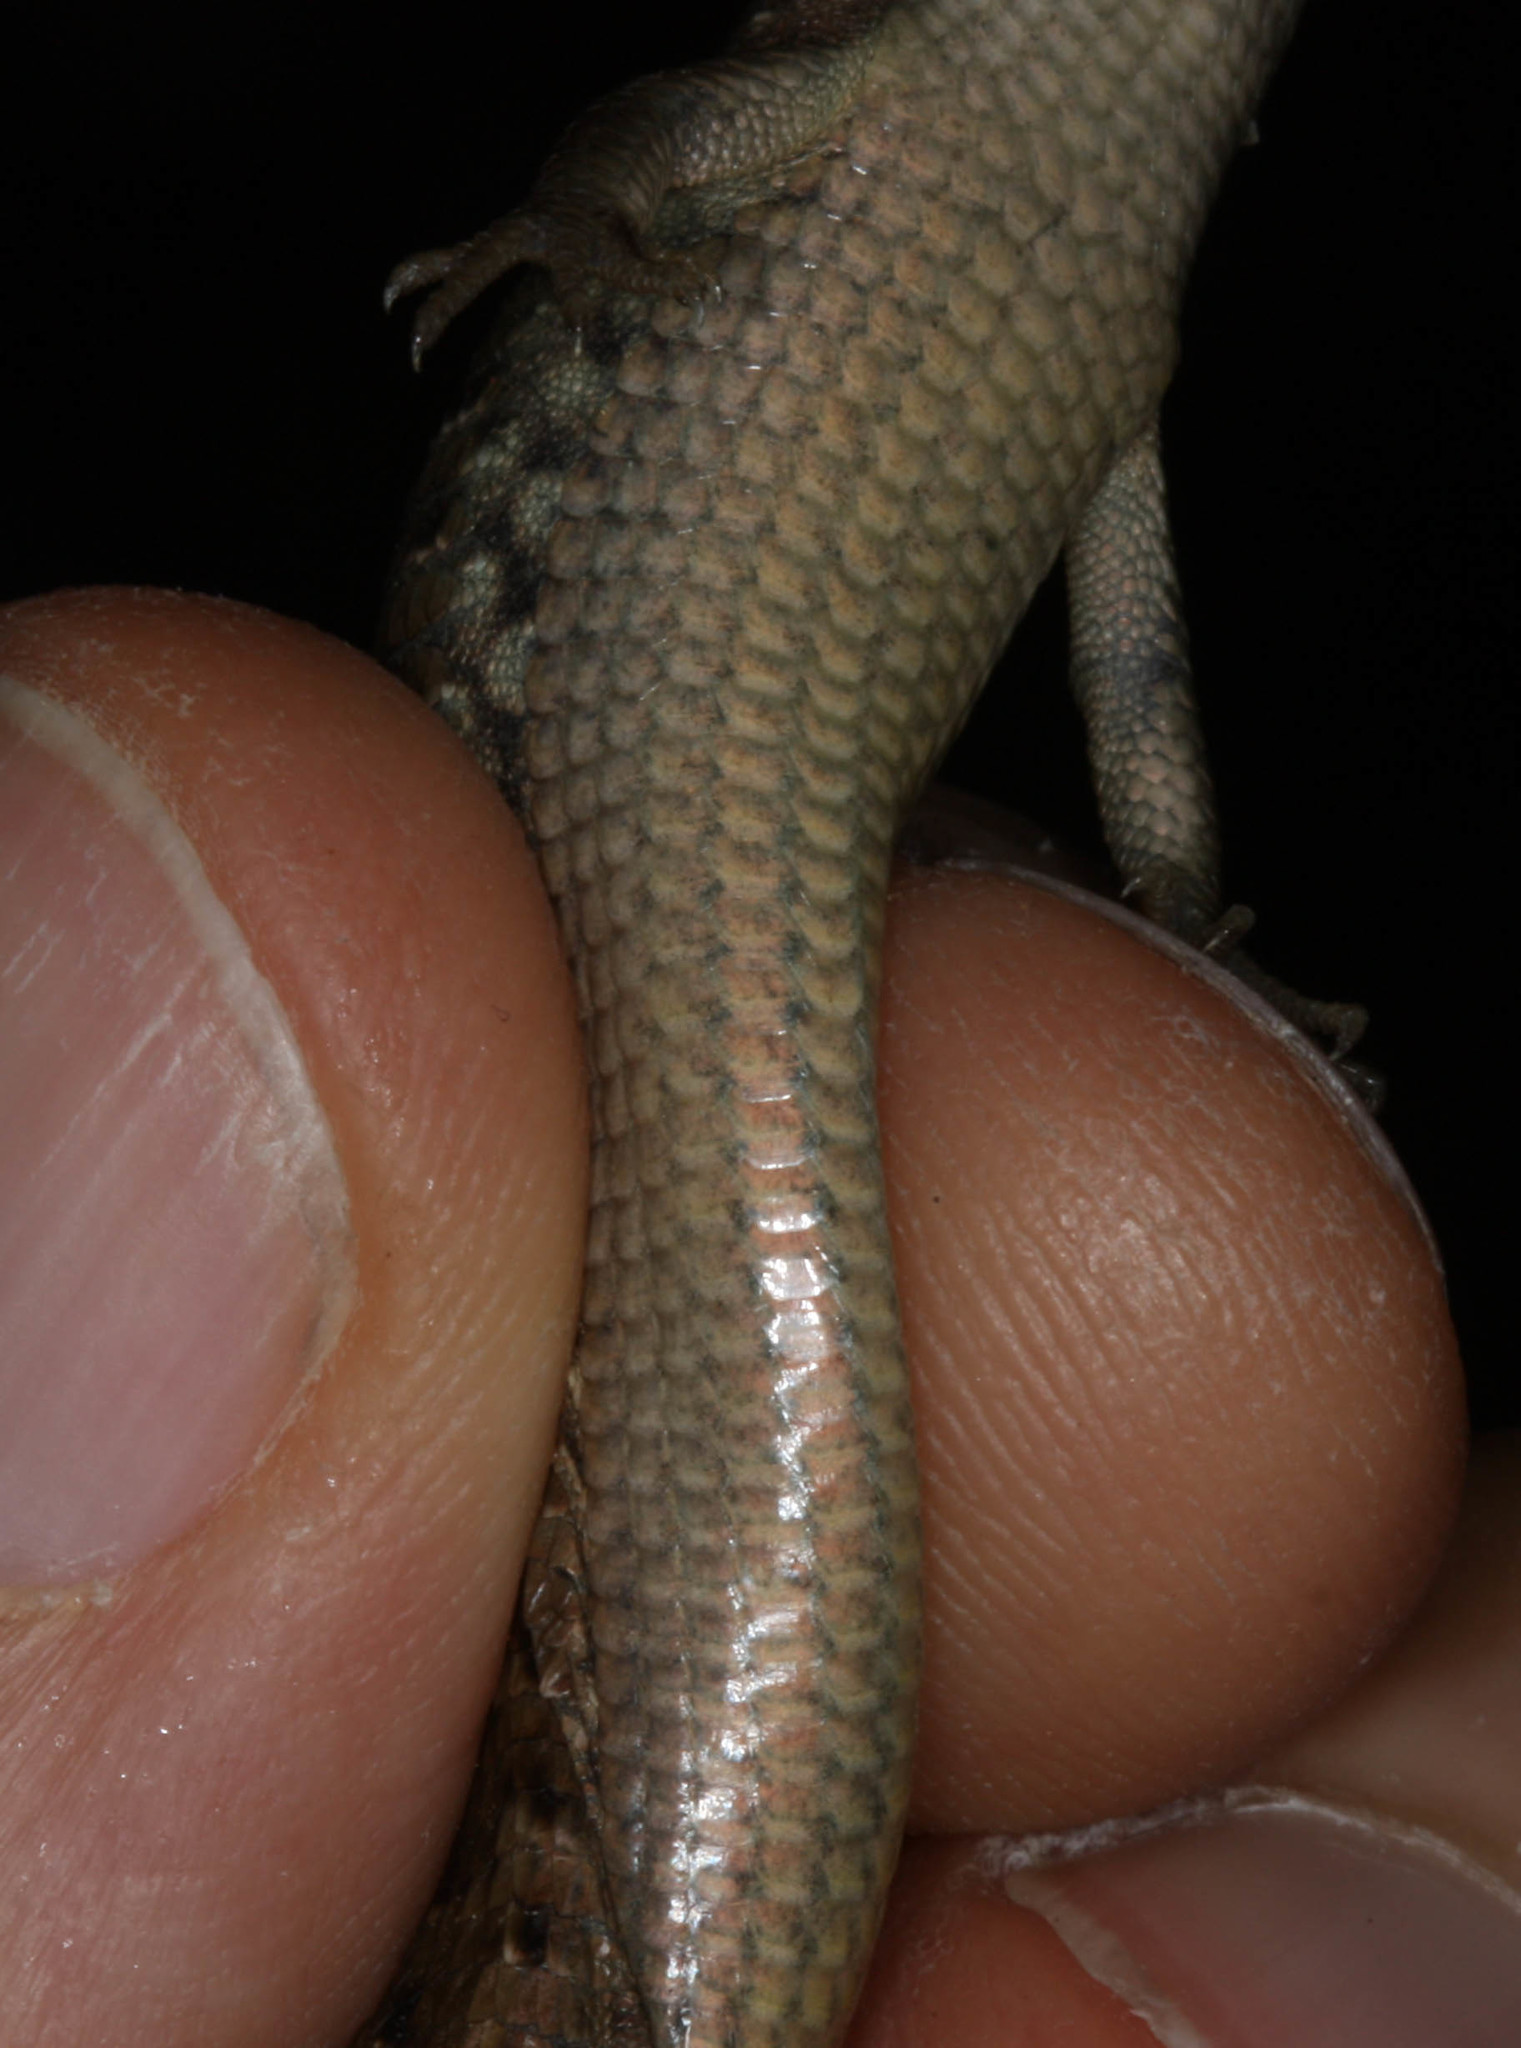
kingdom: Animalia
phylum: Chordata
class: Squamata
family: Anguidae
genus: Elgaria
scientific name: Elgaria coerulea
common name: Northern alligator lizard
